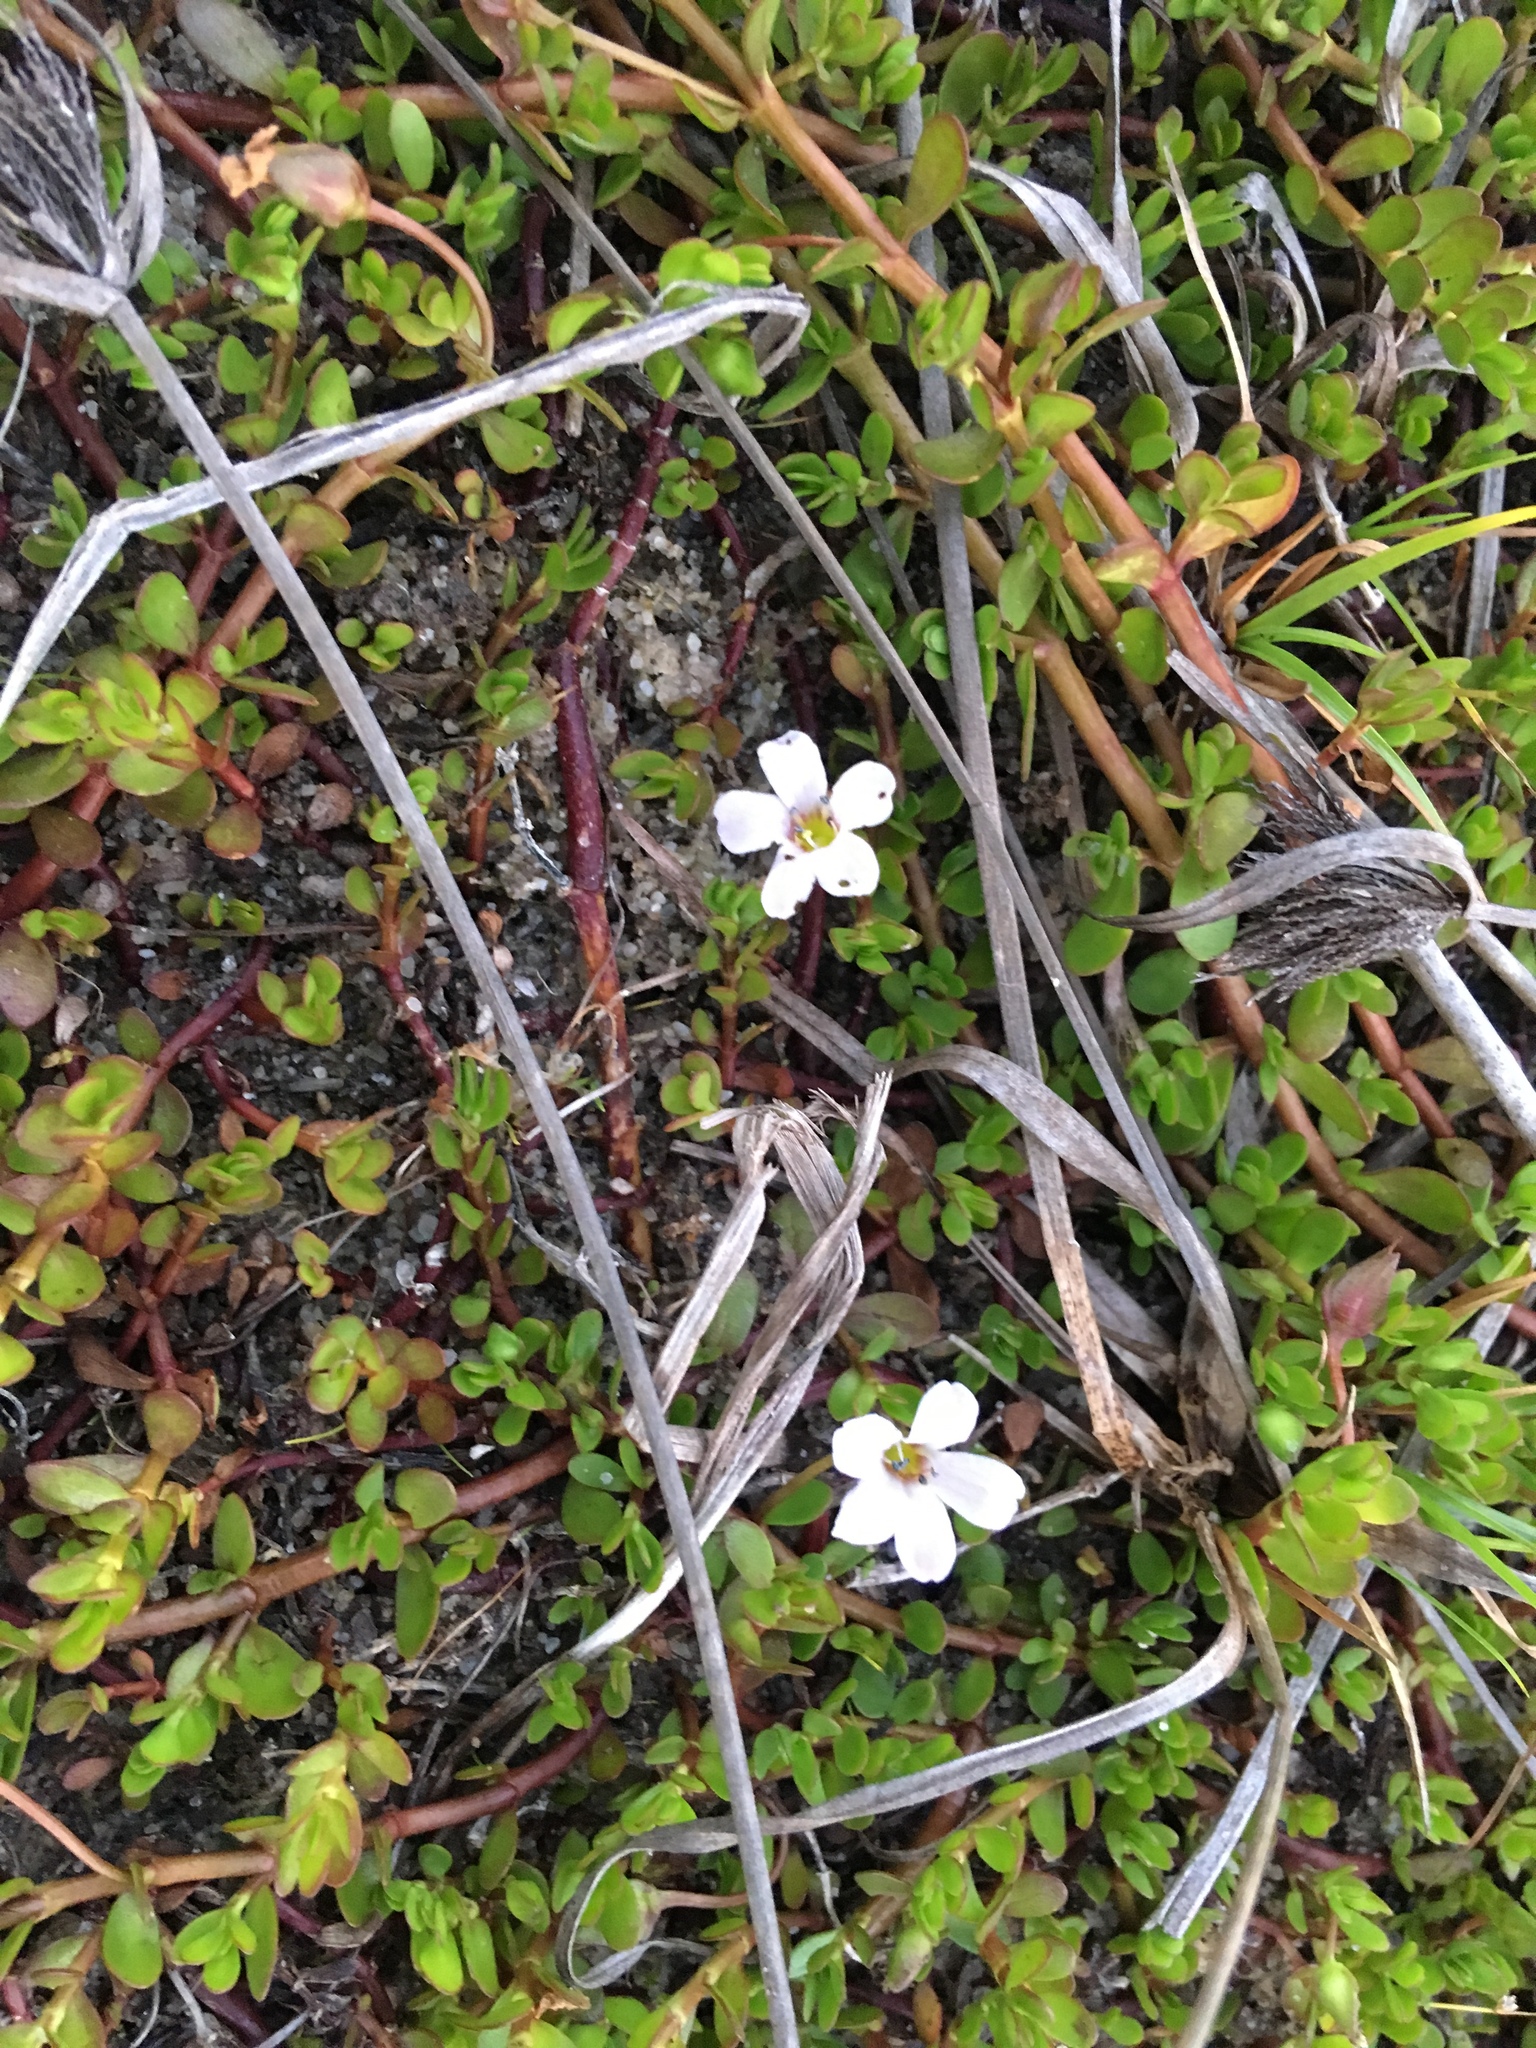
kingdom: Plantae
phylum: Tracheophyta
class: Magnoliopsida
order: Lamiales
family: Plantaginaceae
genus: Bacopa
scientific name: Bacopa monnieri
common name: Indian-pennywort
